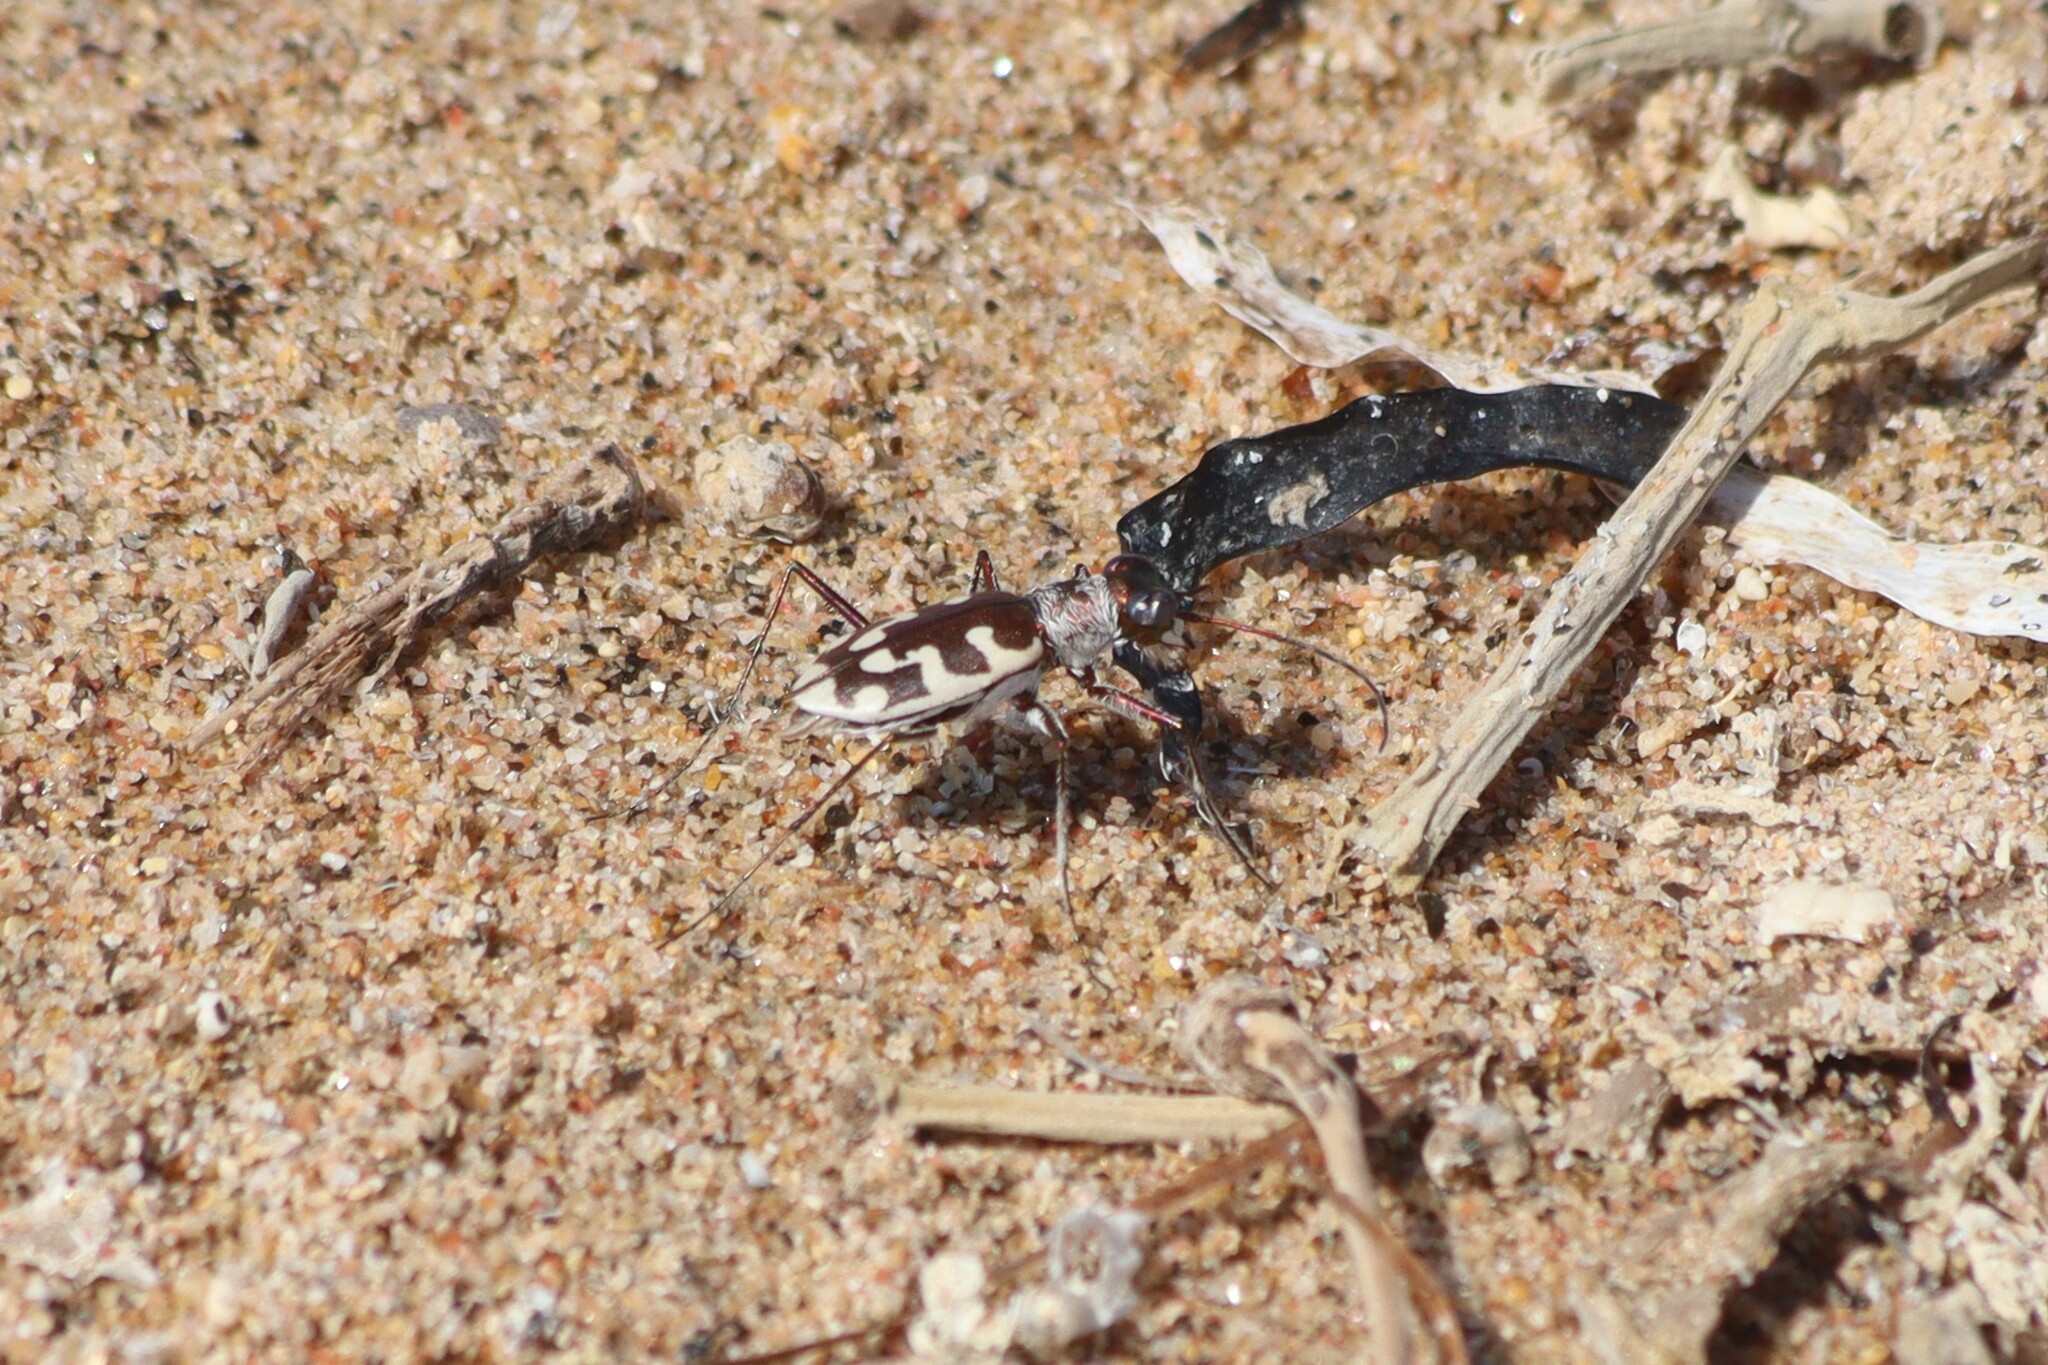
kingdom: Animalia
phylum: Arthropoda
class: Insecta
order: Coleoptera
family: Carabidae
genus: Cephalota
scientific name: Cephalota littorea
